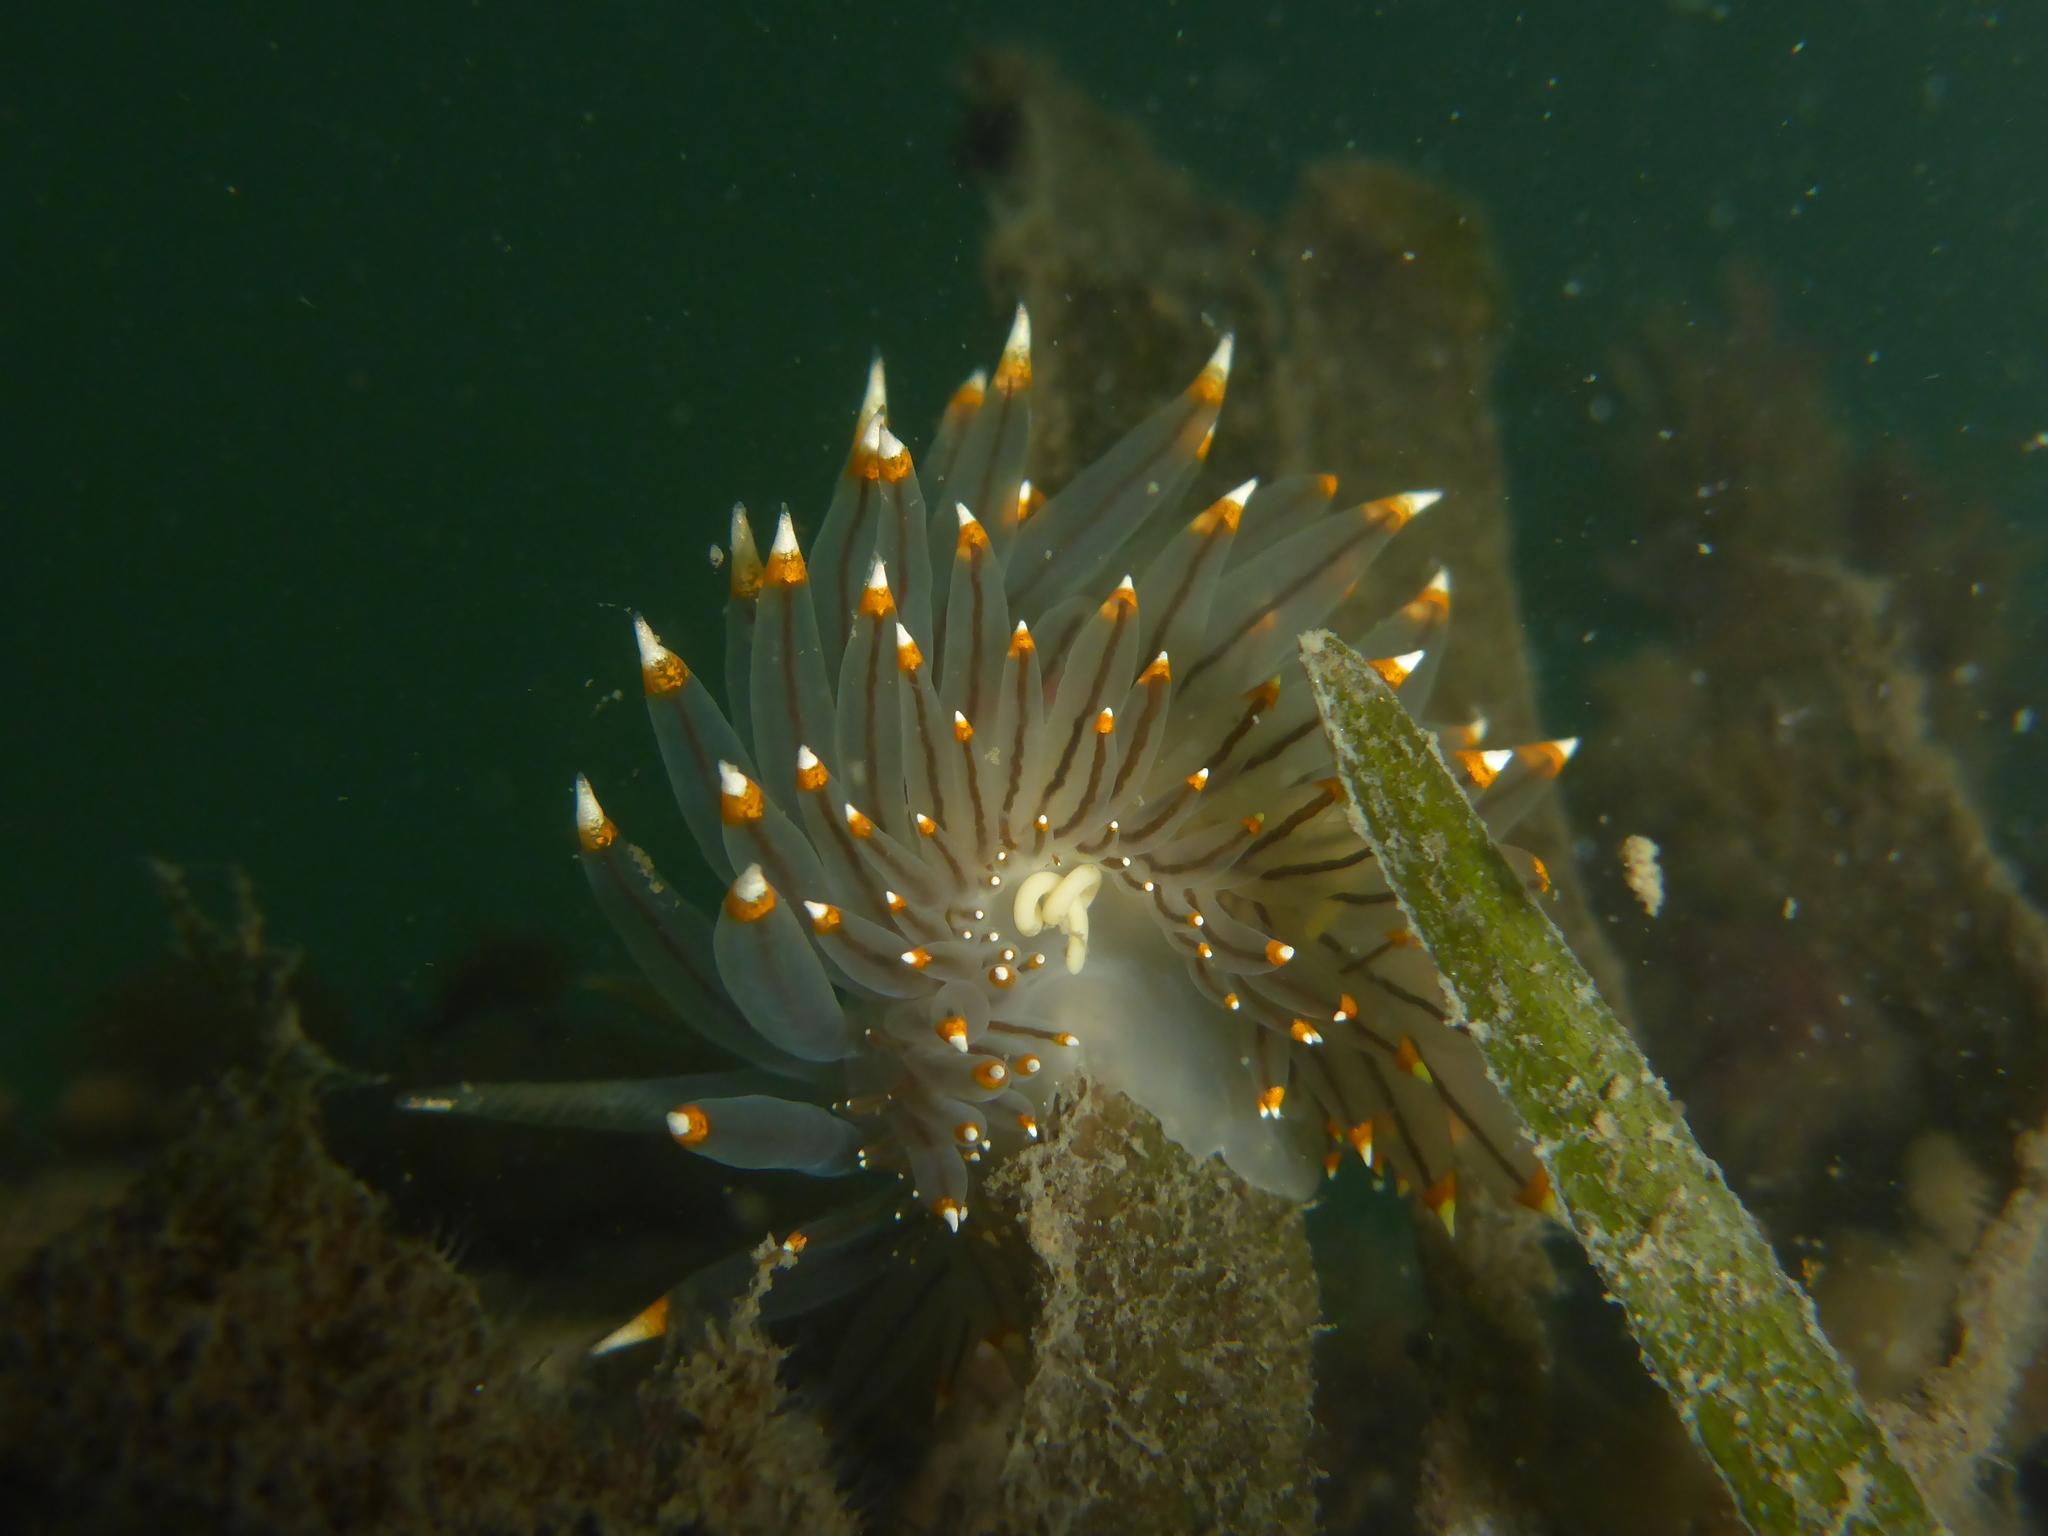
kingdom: Animalia
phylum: Mollusca
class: Gastropoda
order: Nudibranchia
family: Janolidae
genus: Antiopella
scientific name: Antiopella fusca
